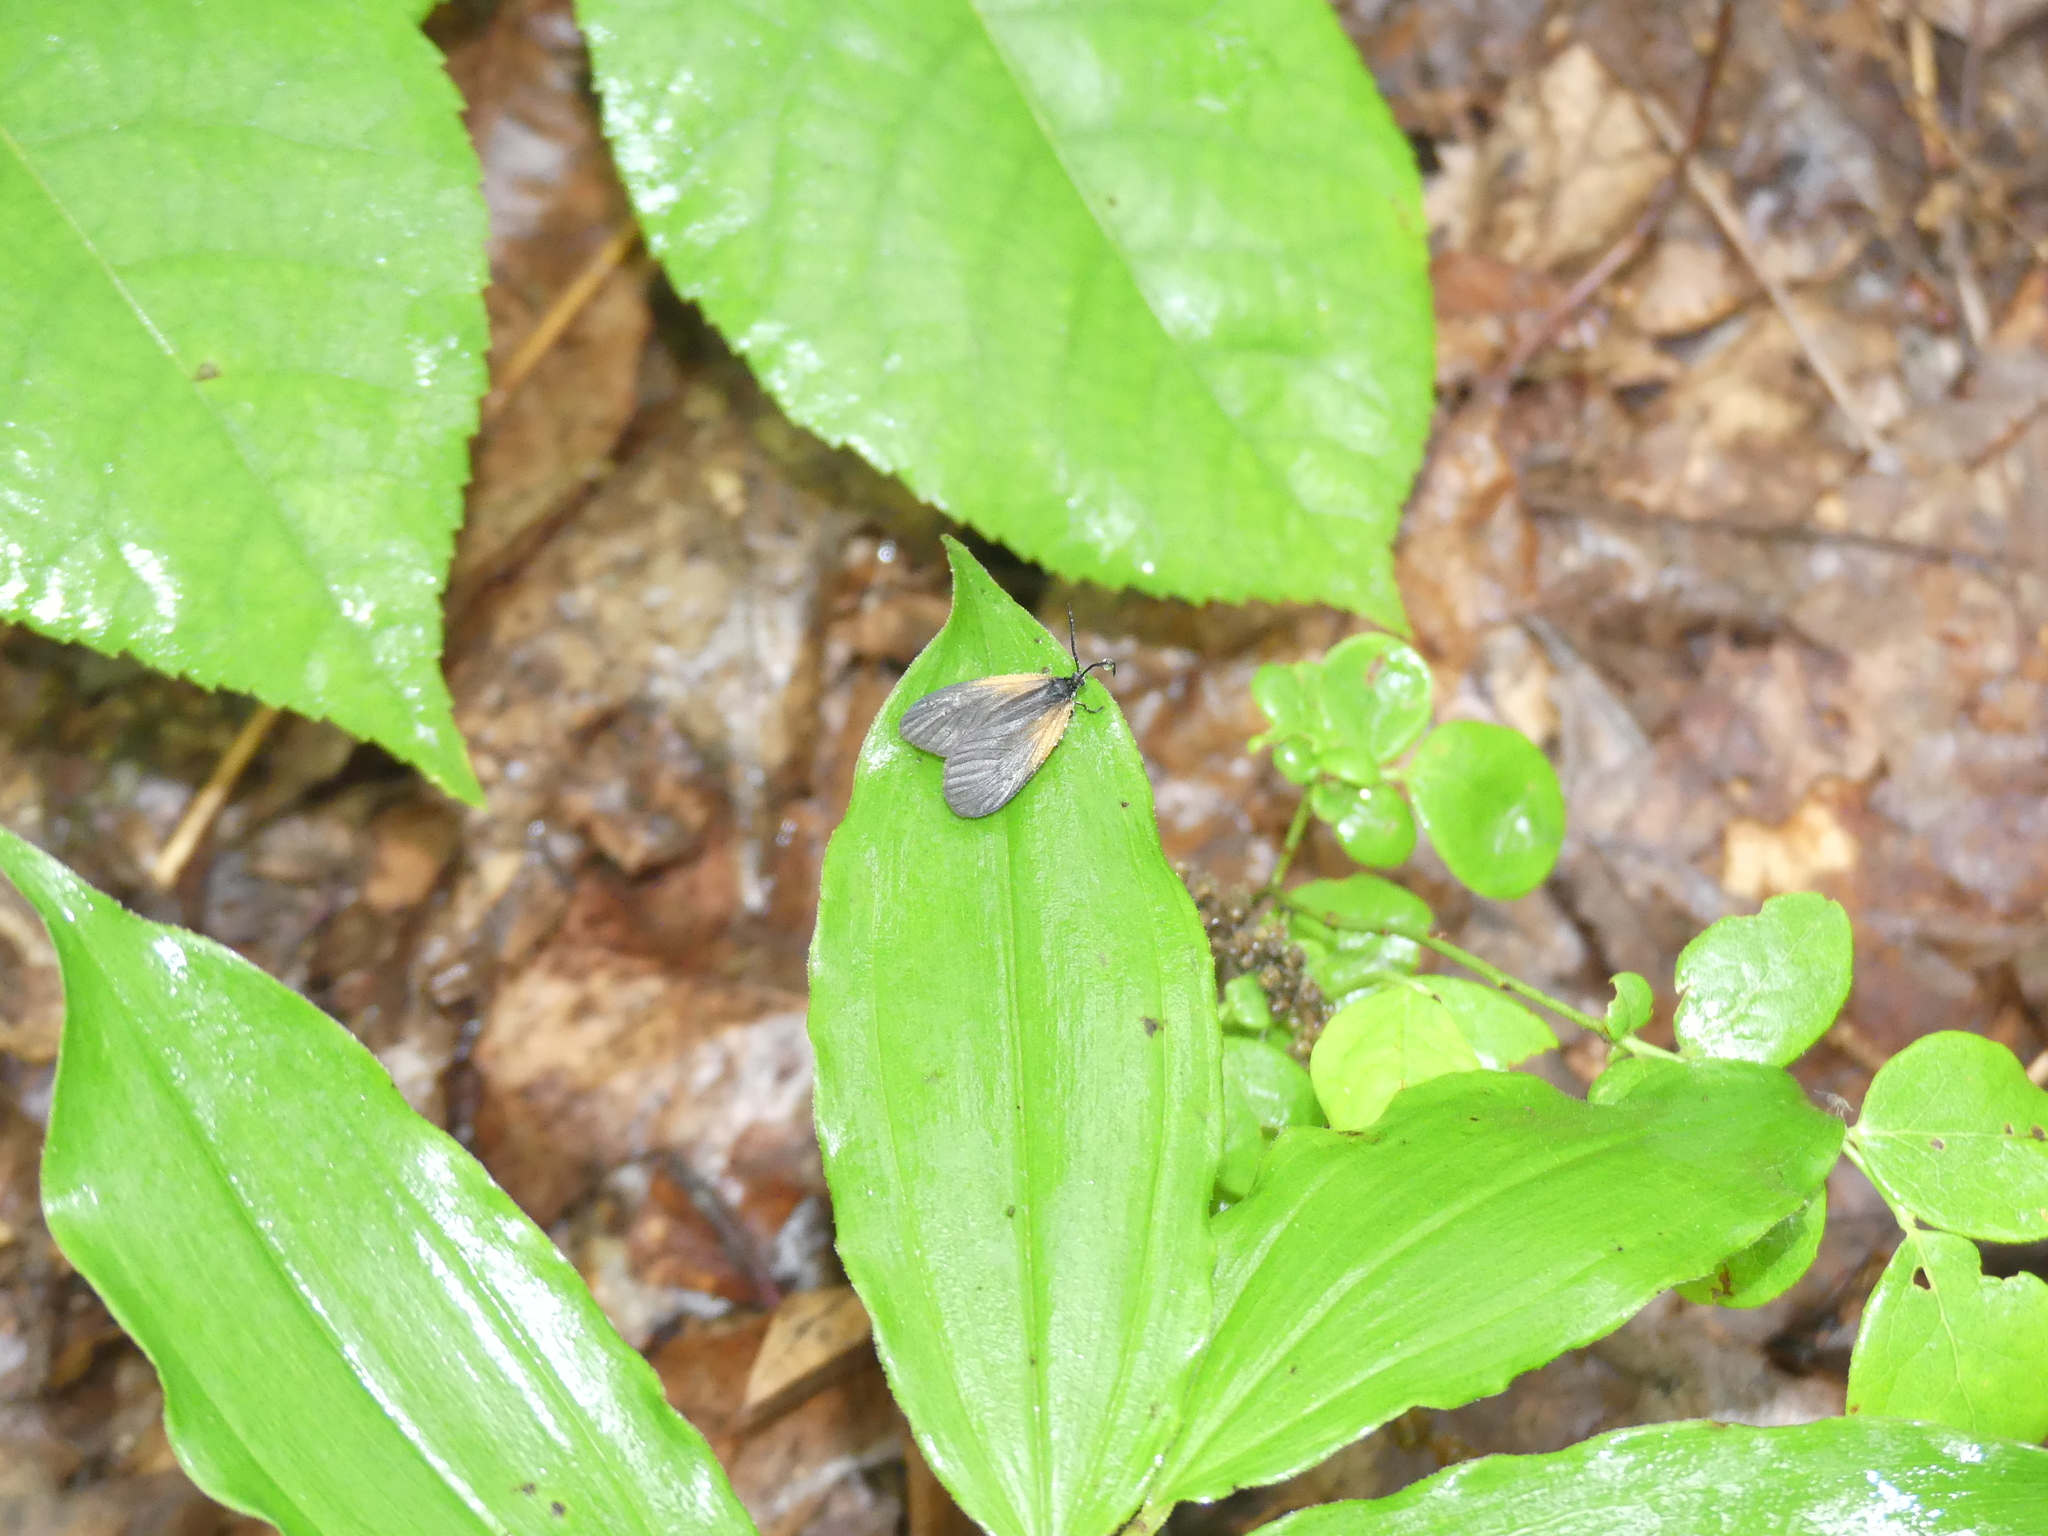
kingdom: Animalia
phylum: Arthropoda
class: Insecta
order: Lepidoptera
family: Zygaenidae
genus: Malthaca
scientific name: Malthaca dimidiata
